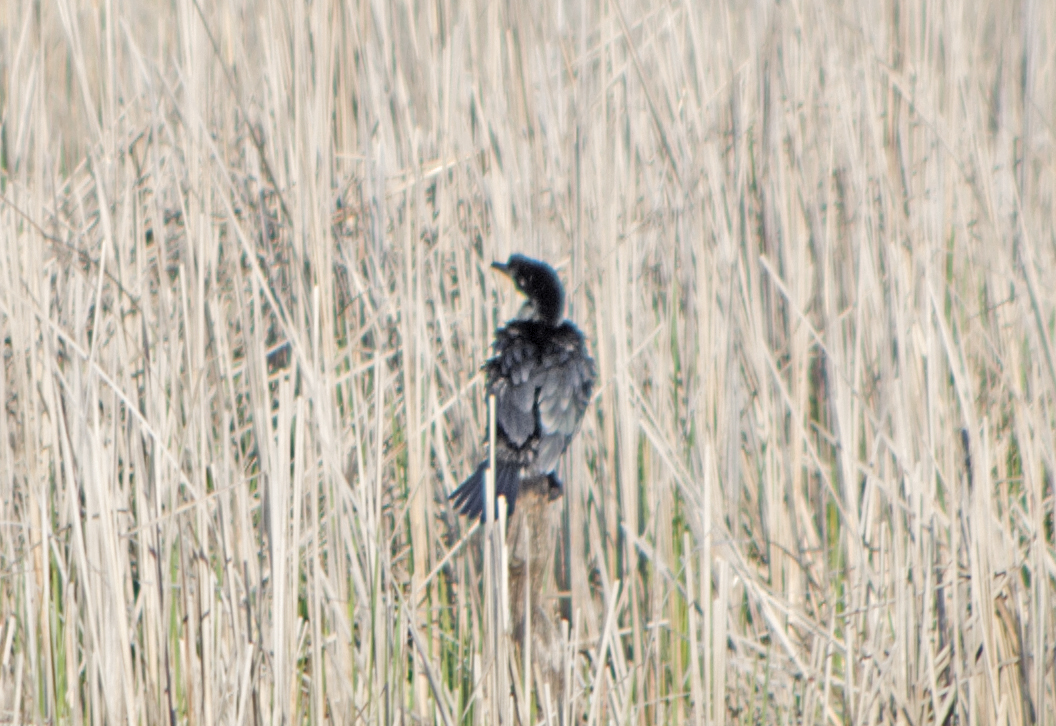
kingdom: Animalia
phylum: Chordata
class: Aves
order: Suliformes
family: Phalacrocoracidae
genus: Microcarbo
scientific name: Microcarbo pygmaeus
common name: Pygmy cormorant
